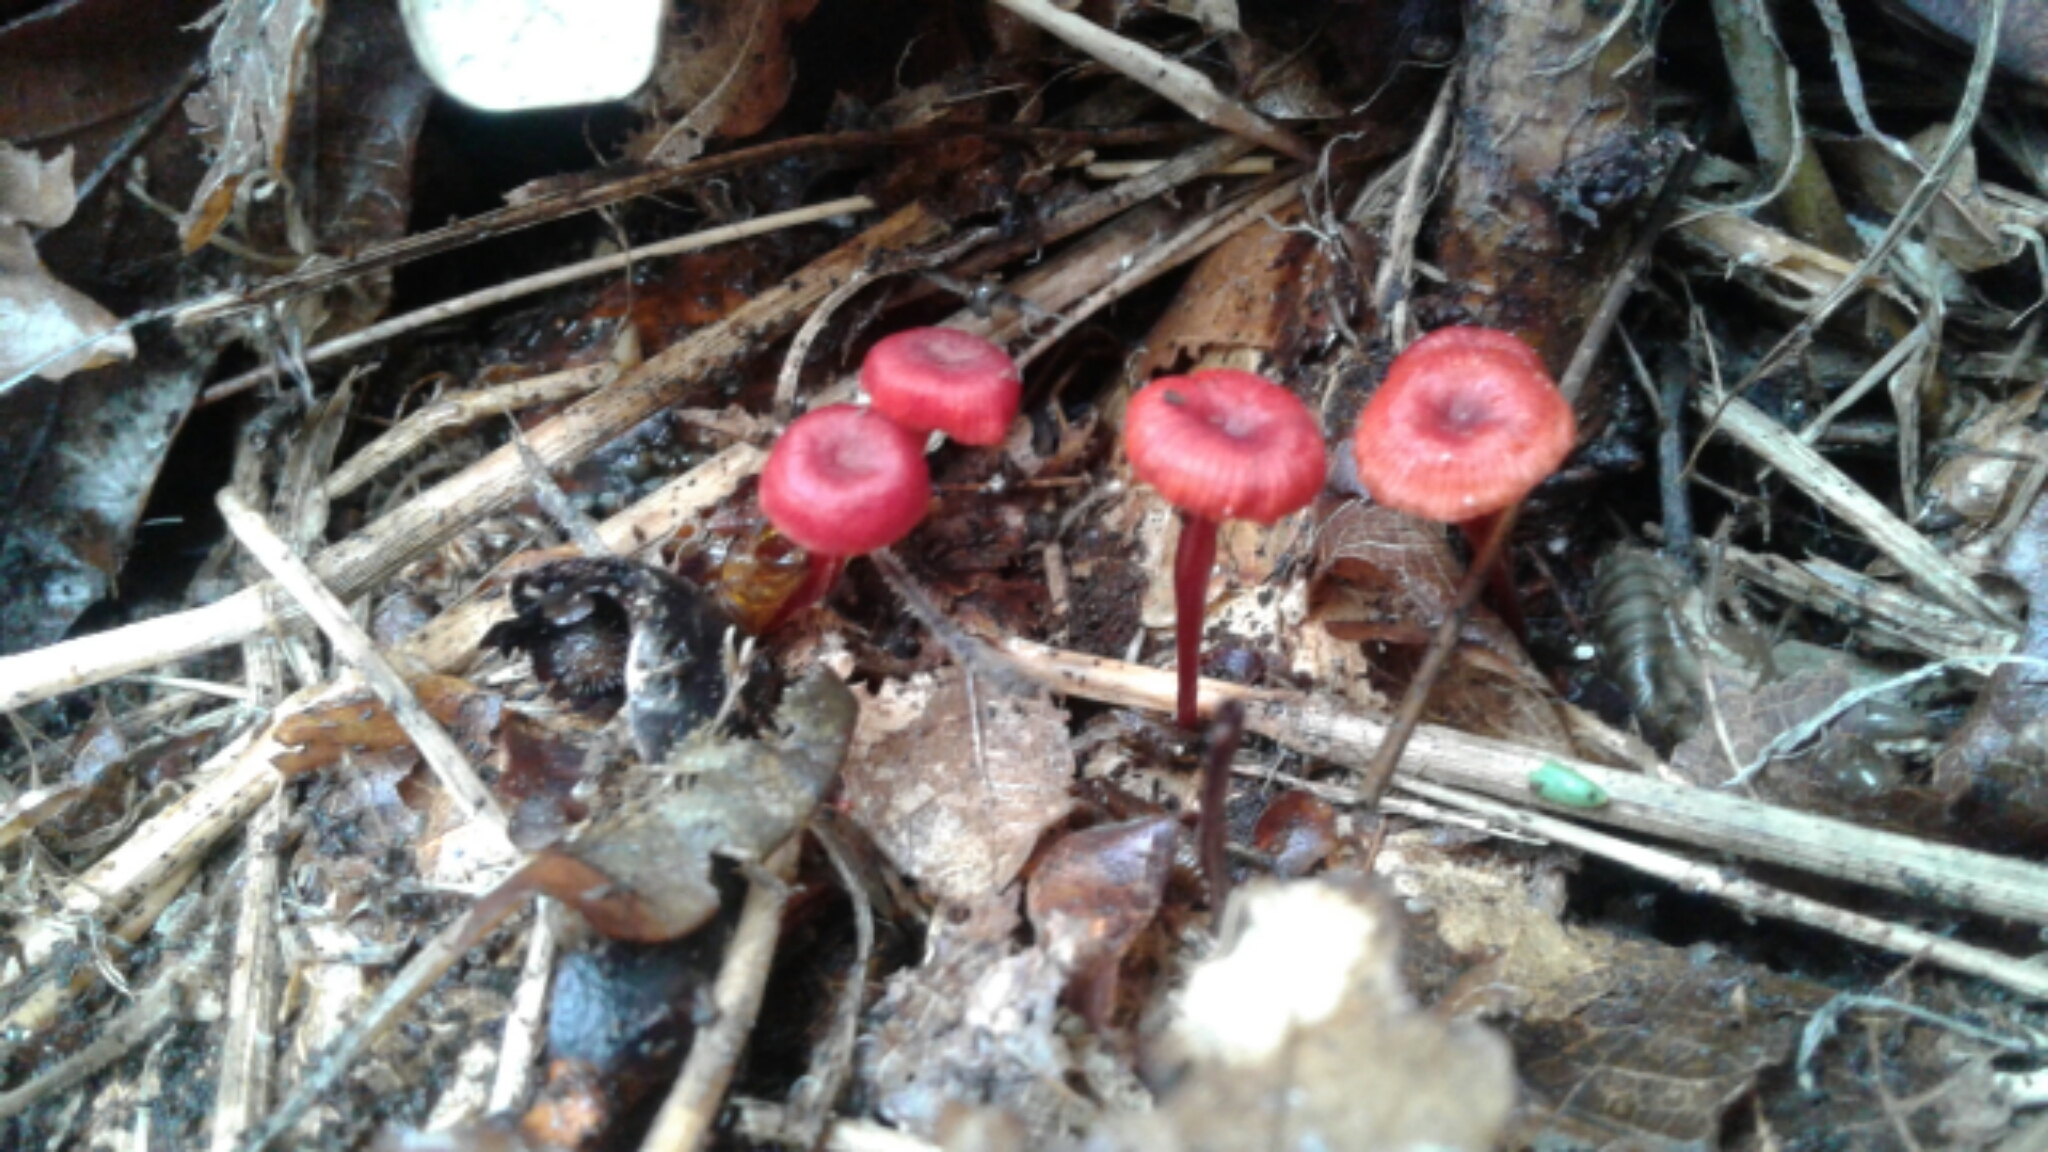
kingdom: Fungi
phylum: Basidiomycota
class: Agaricomycetes
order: Agaricales
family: Mycenaceae
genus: Cruentomycena
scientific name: Cruentomycena viscidocruenta
